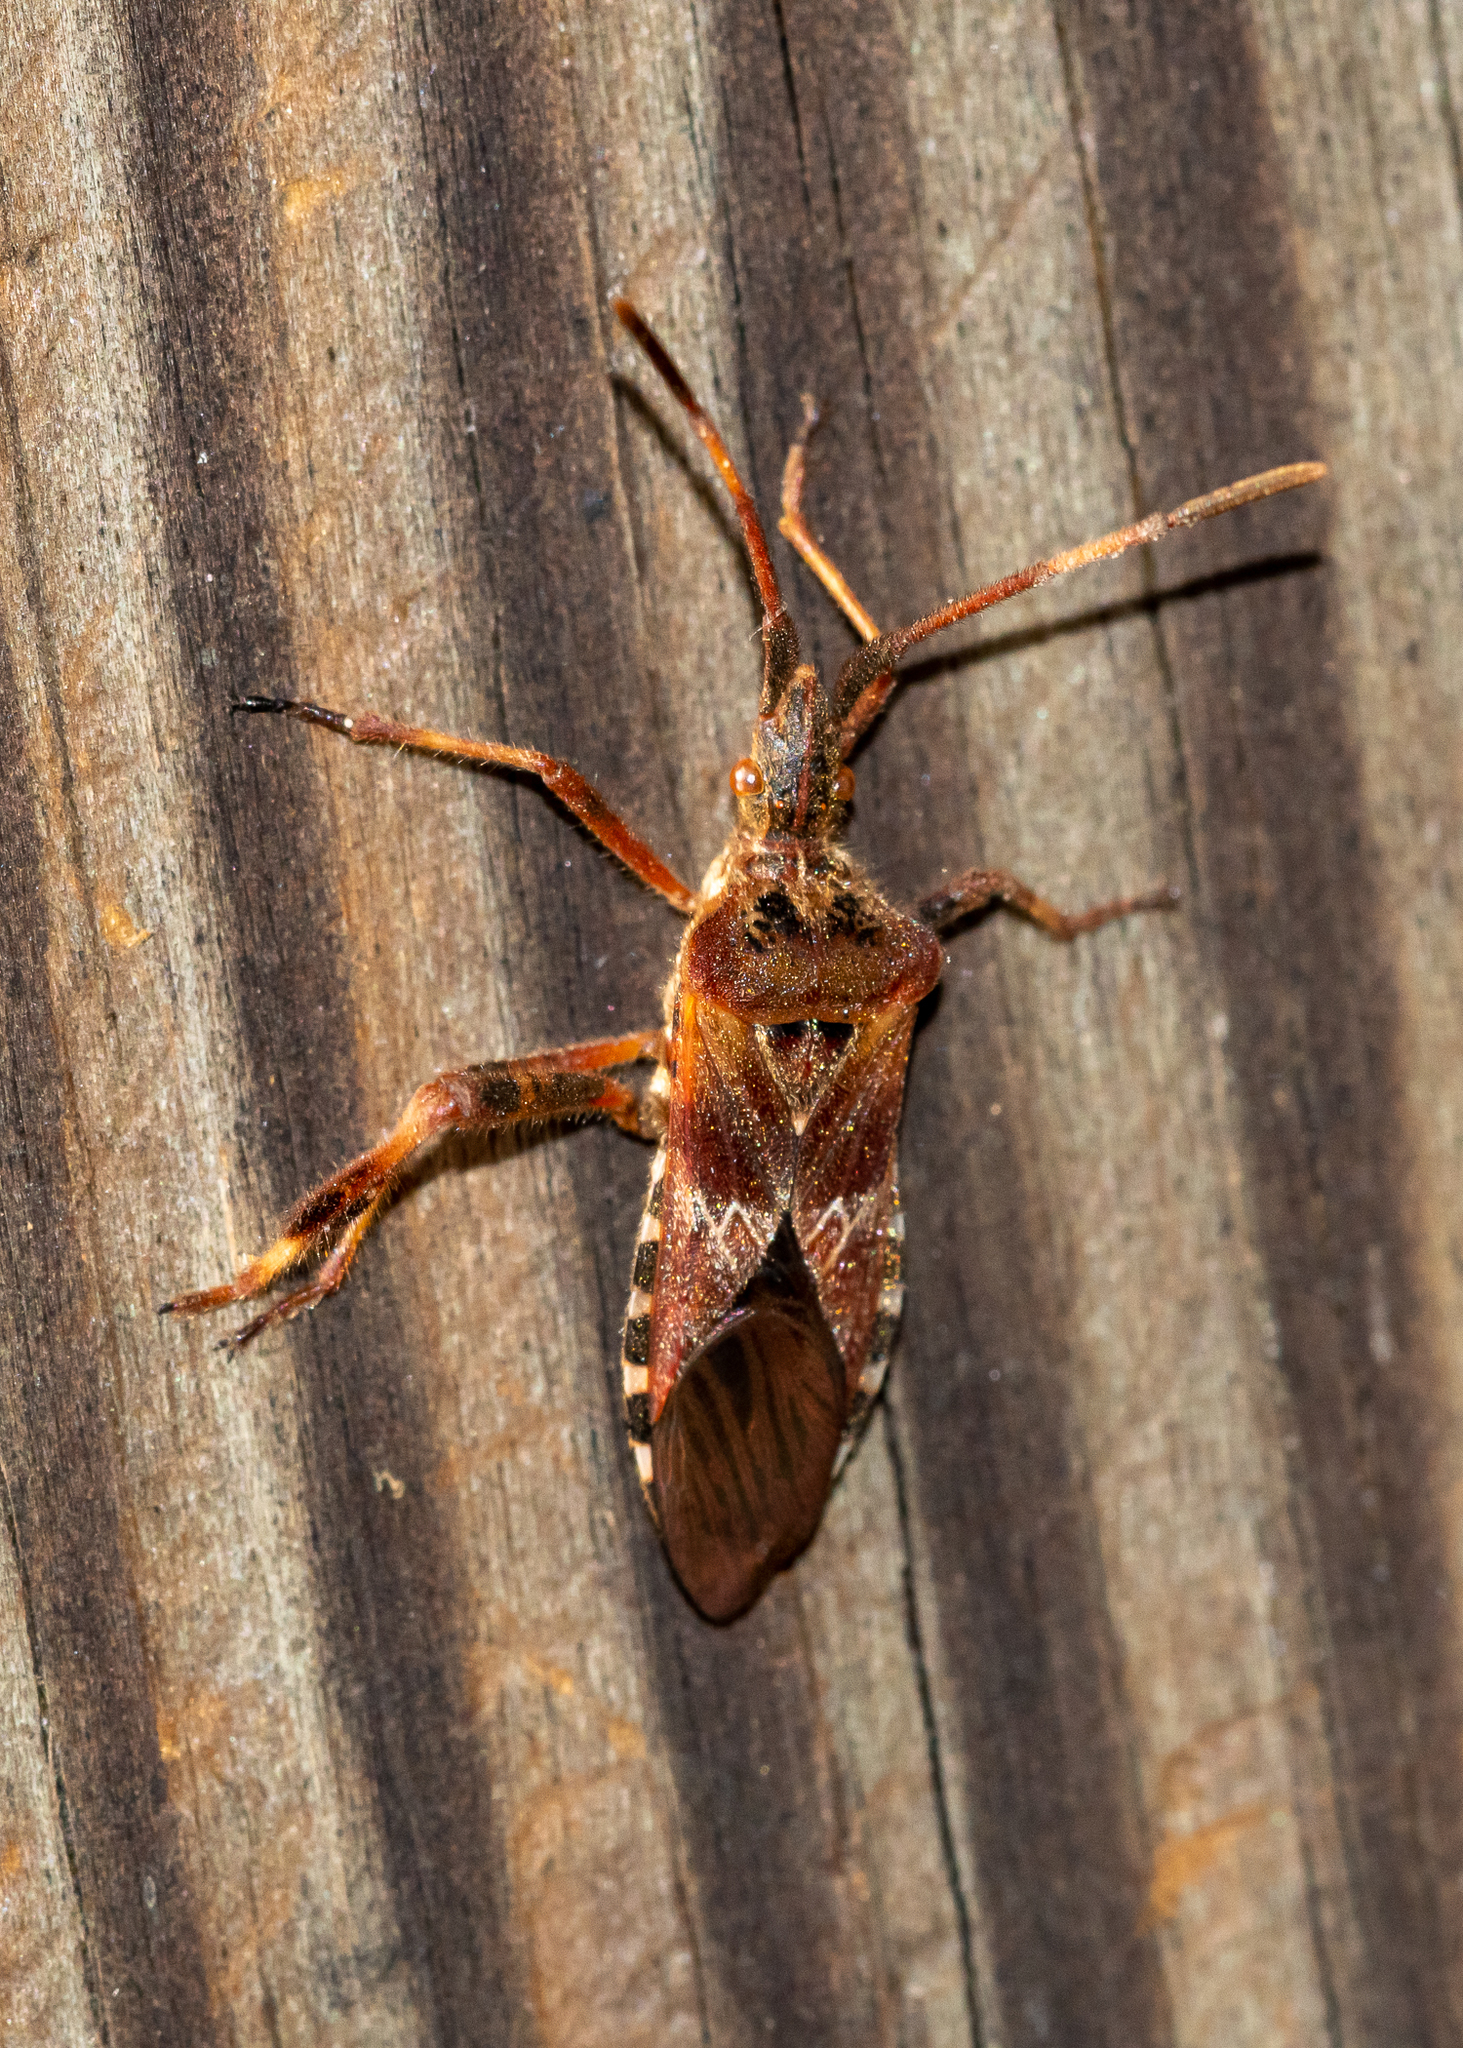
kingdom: Animalia
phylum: Arthropoda
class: Insecta
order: Hemiptera
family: Coreidae
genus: Leptoglossus
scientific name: Leptoglossus occidentalis
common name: Western conifer-seed bug
